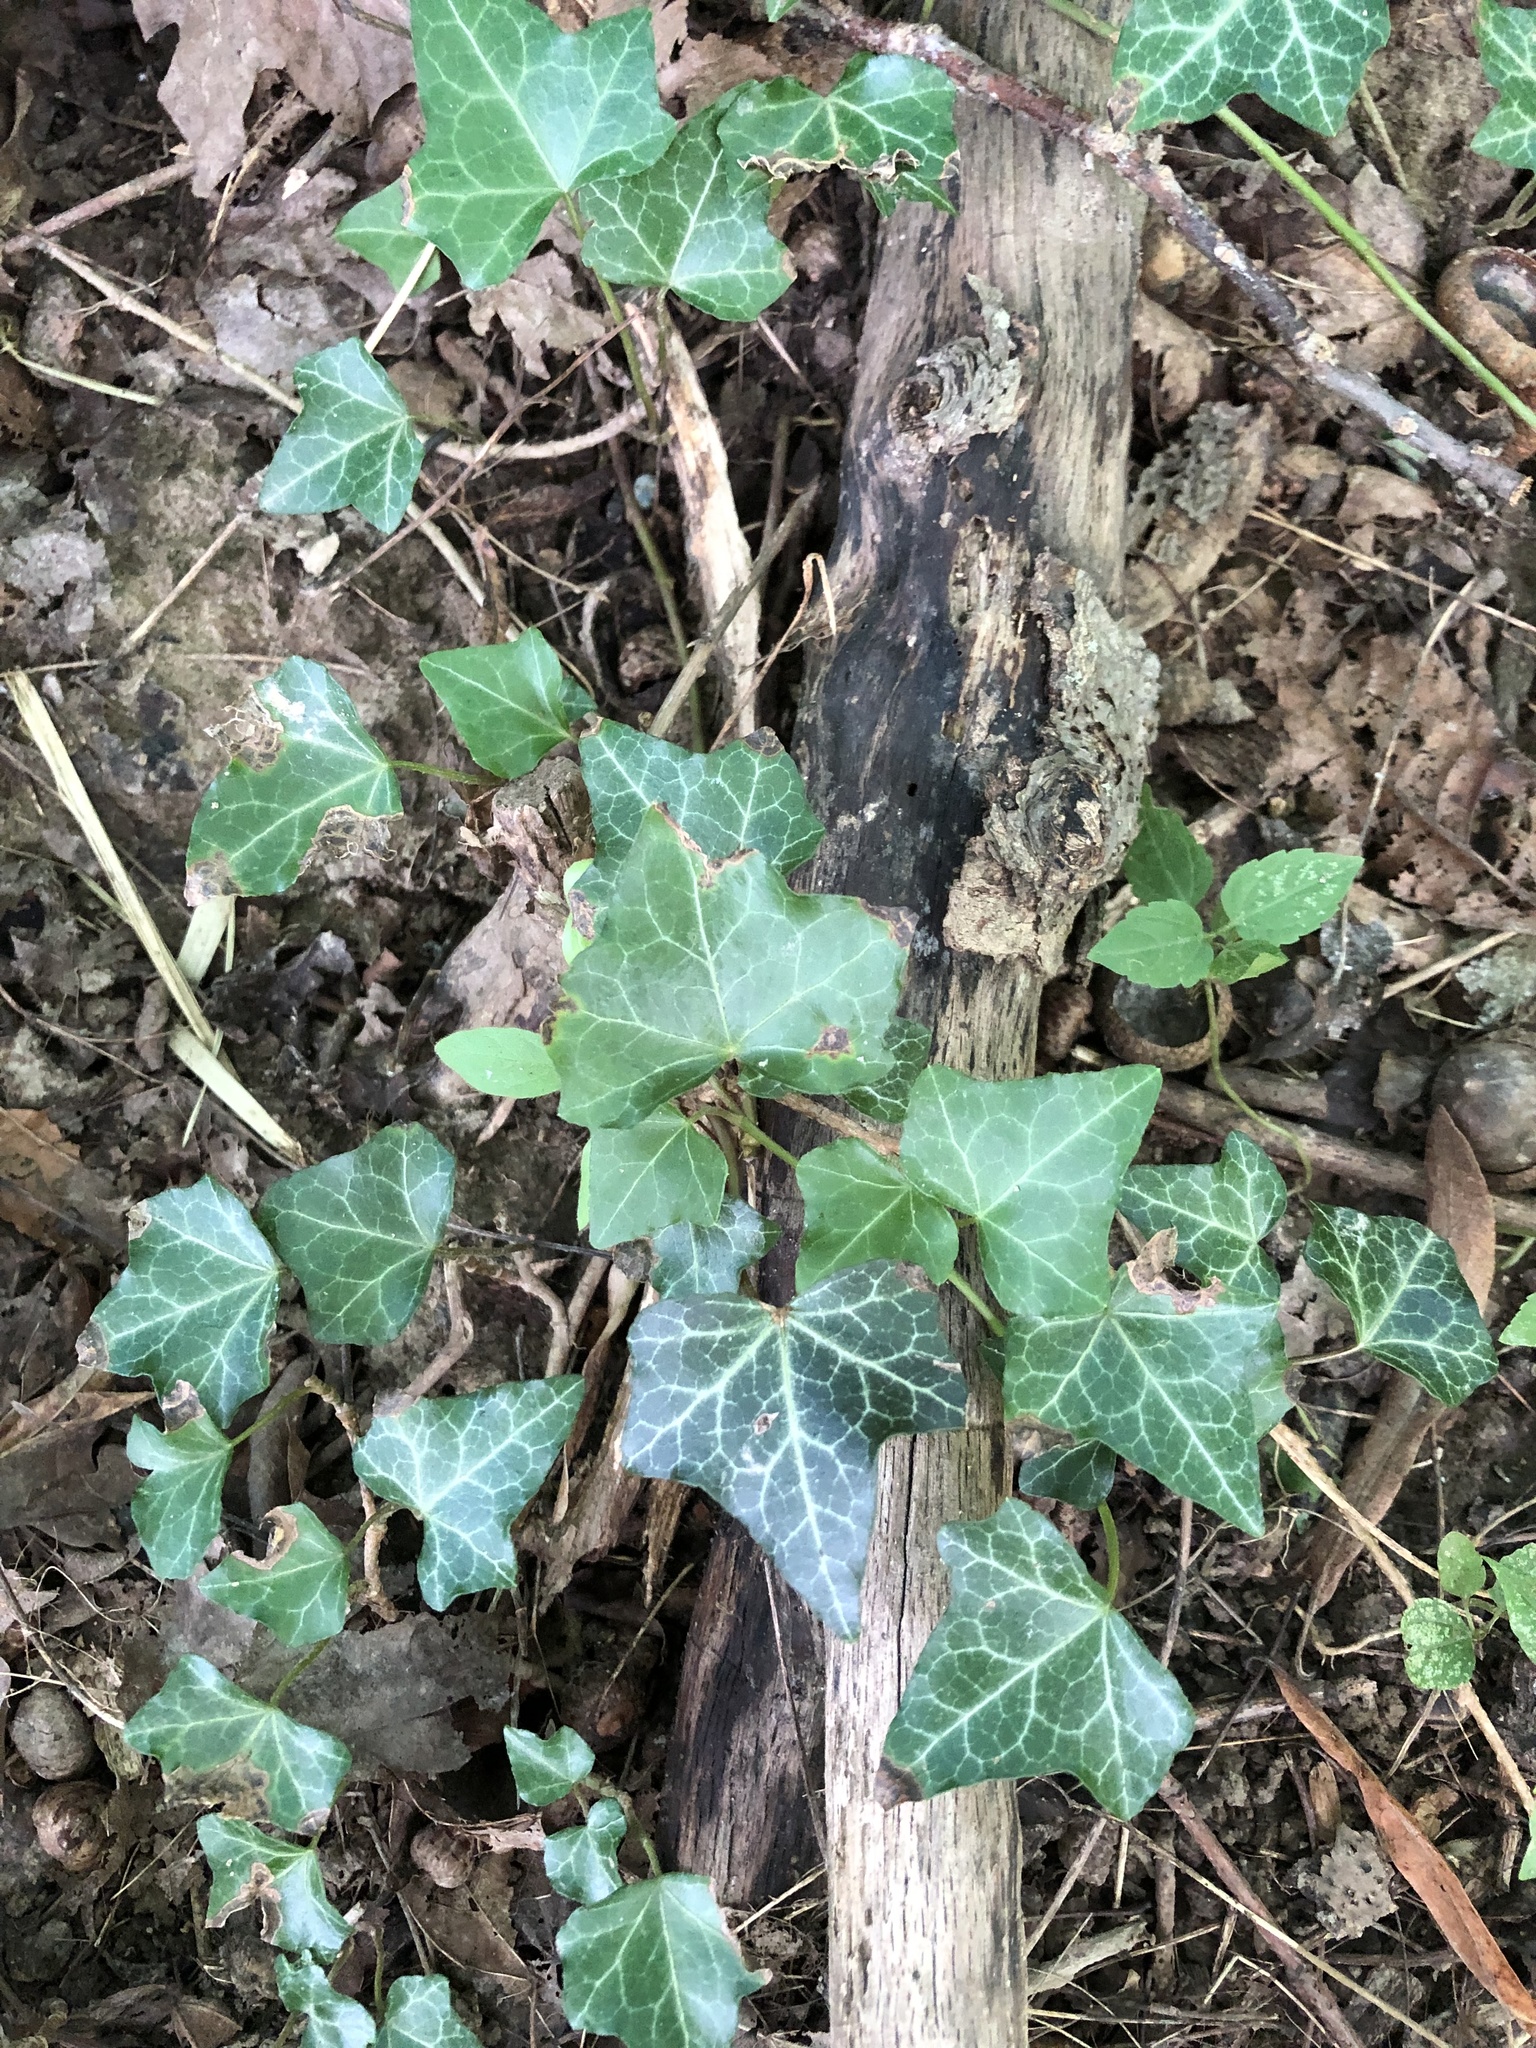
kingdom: Plantae
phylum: Tracheophyta
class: Magnoliopsida
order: Apiales
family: Araliaceae
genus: Hedera
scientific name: Hedera helix
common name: Ivy
